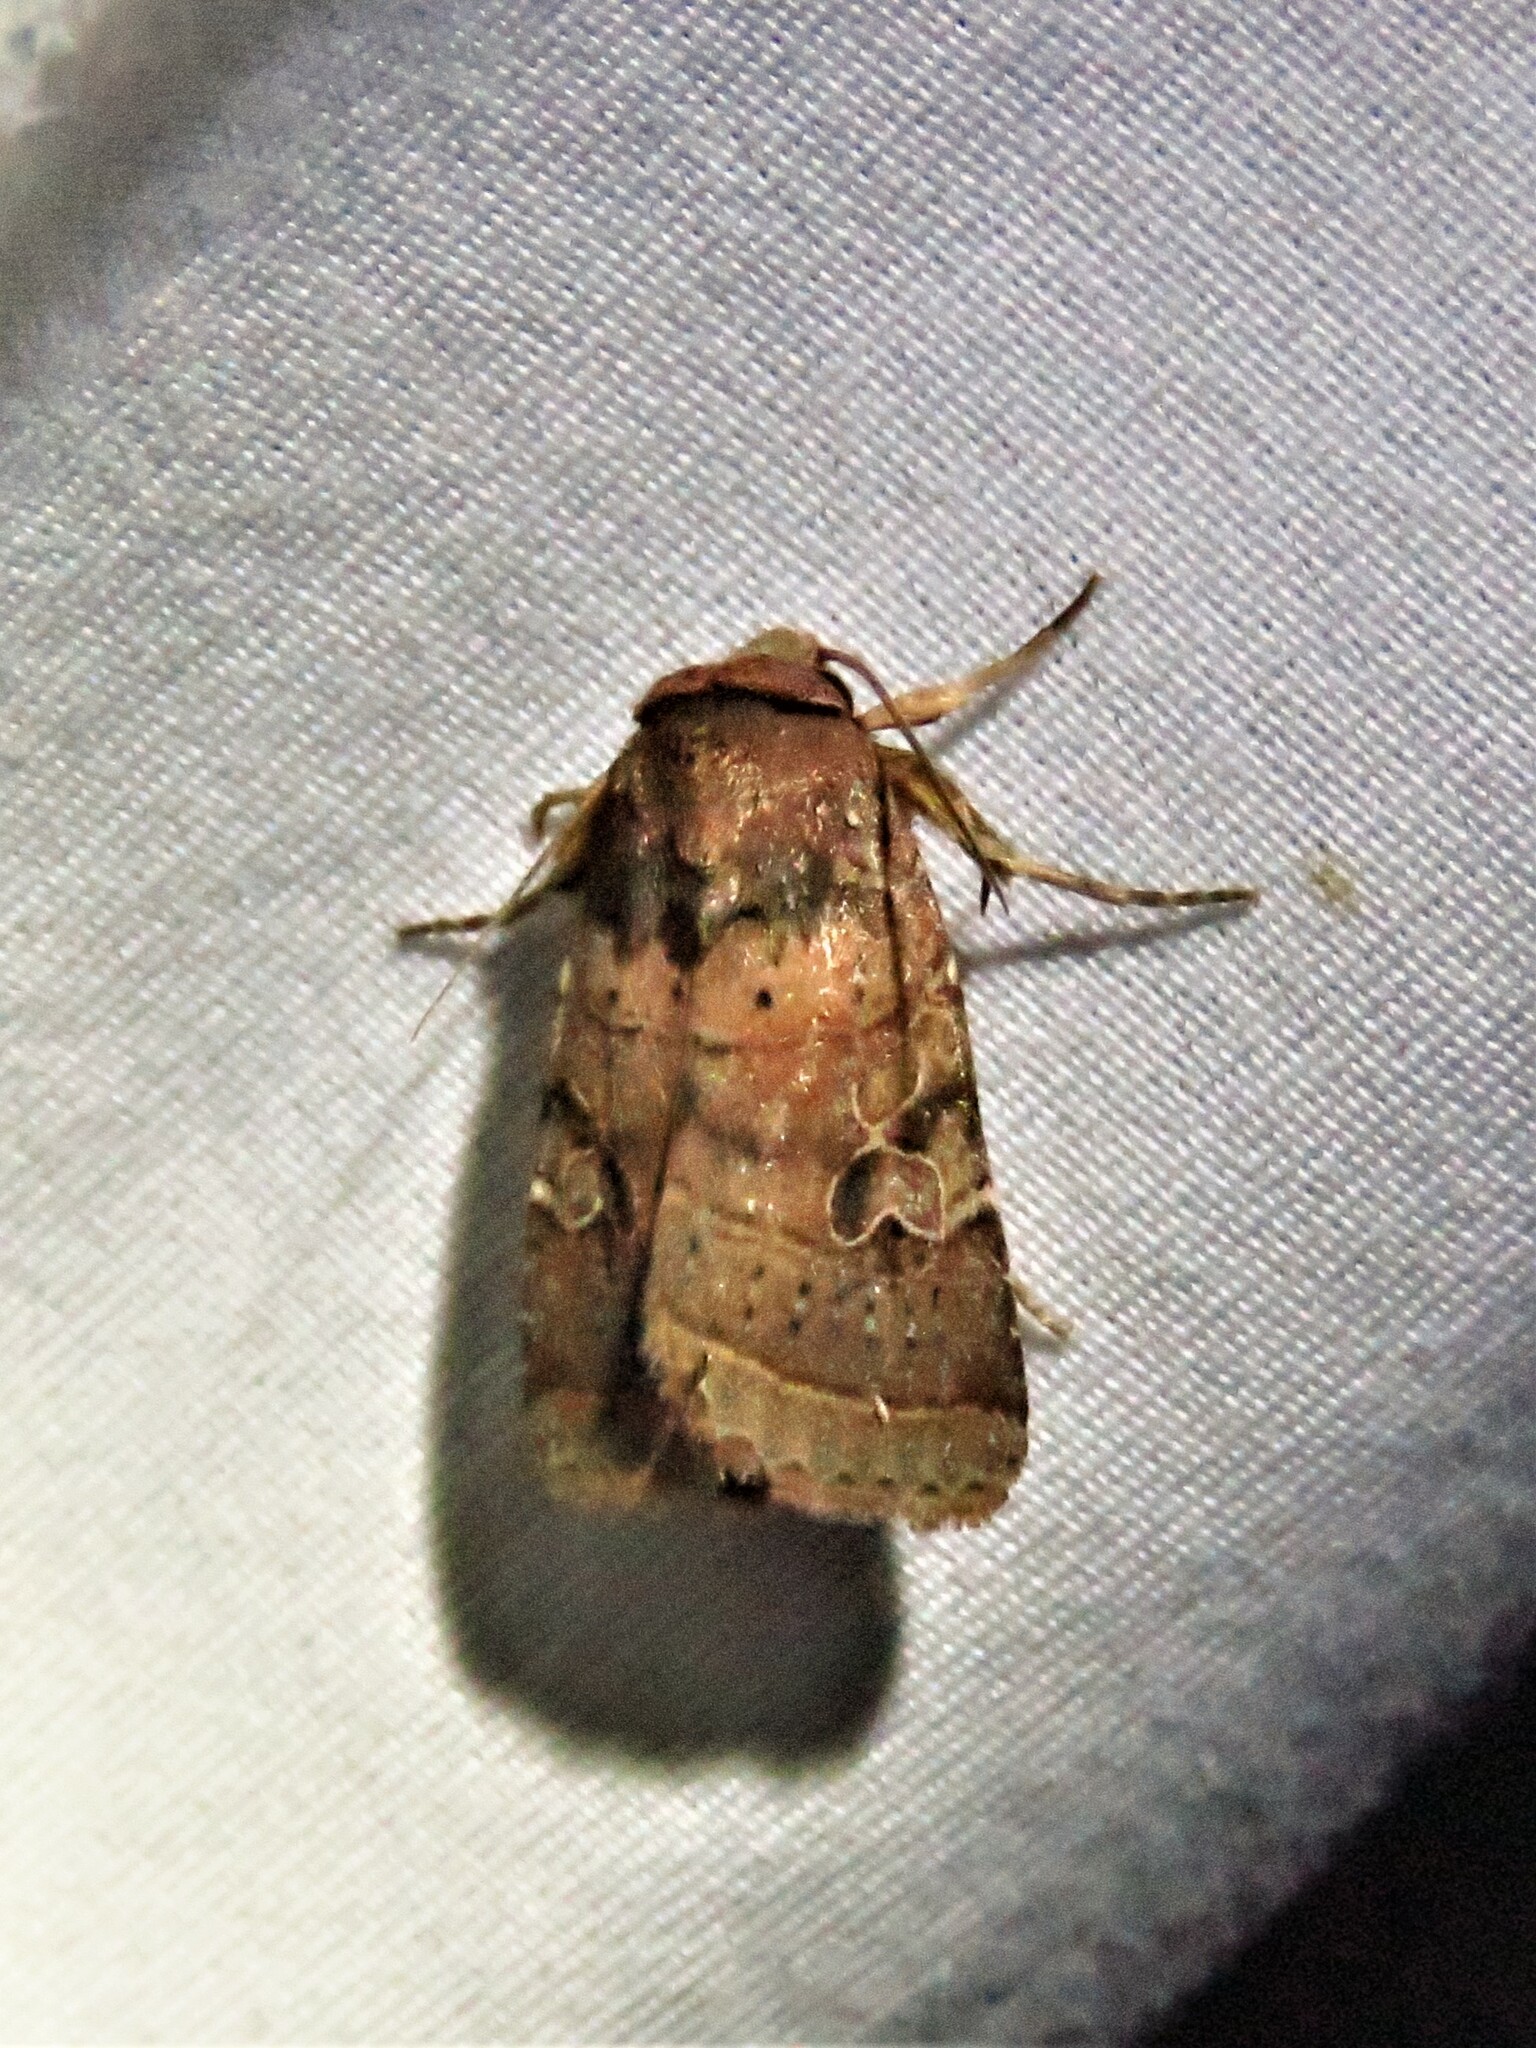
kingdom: Animalia
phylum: Arthropoda
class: Insecta
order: Lepidoptera
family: Noctuidae
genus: Orthodes
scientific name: Orthodes furtiva
